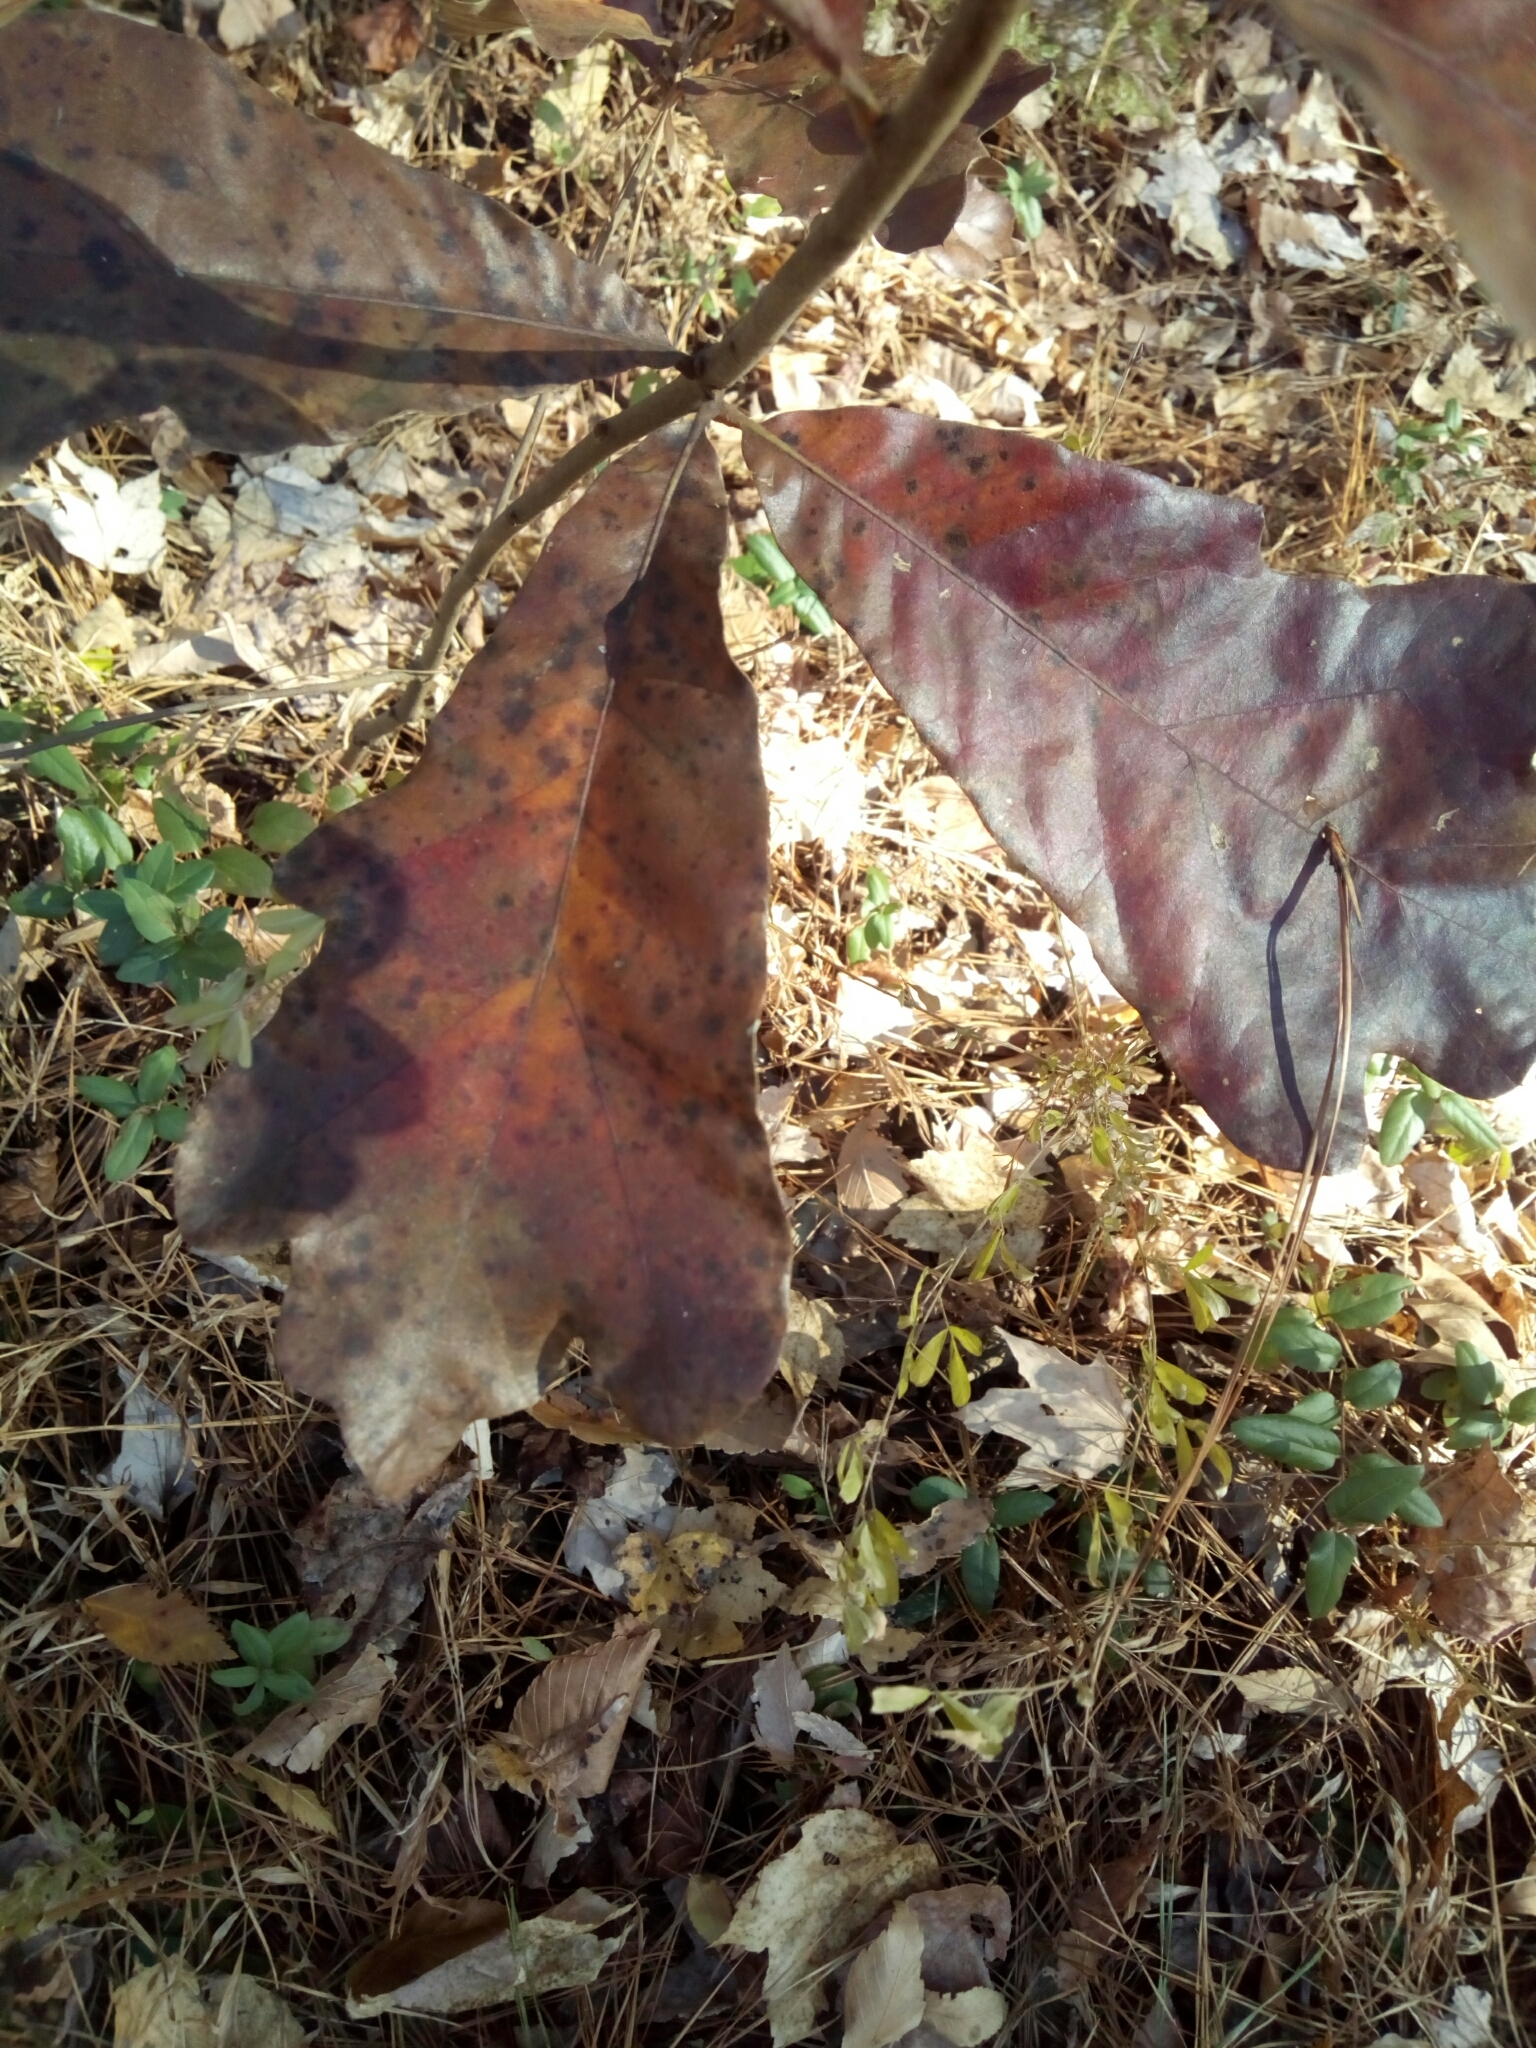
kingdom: Plantae
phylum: Tracheophyta
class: Magnoliopsida
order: Fagales
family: Fagaceae
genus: Quercus
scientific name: Quercus falcata
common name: Southern red oak
